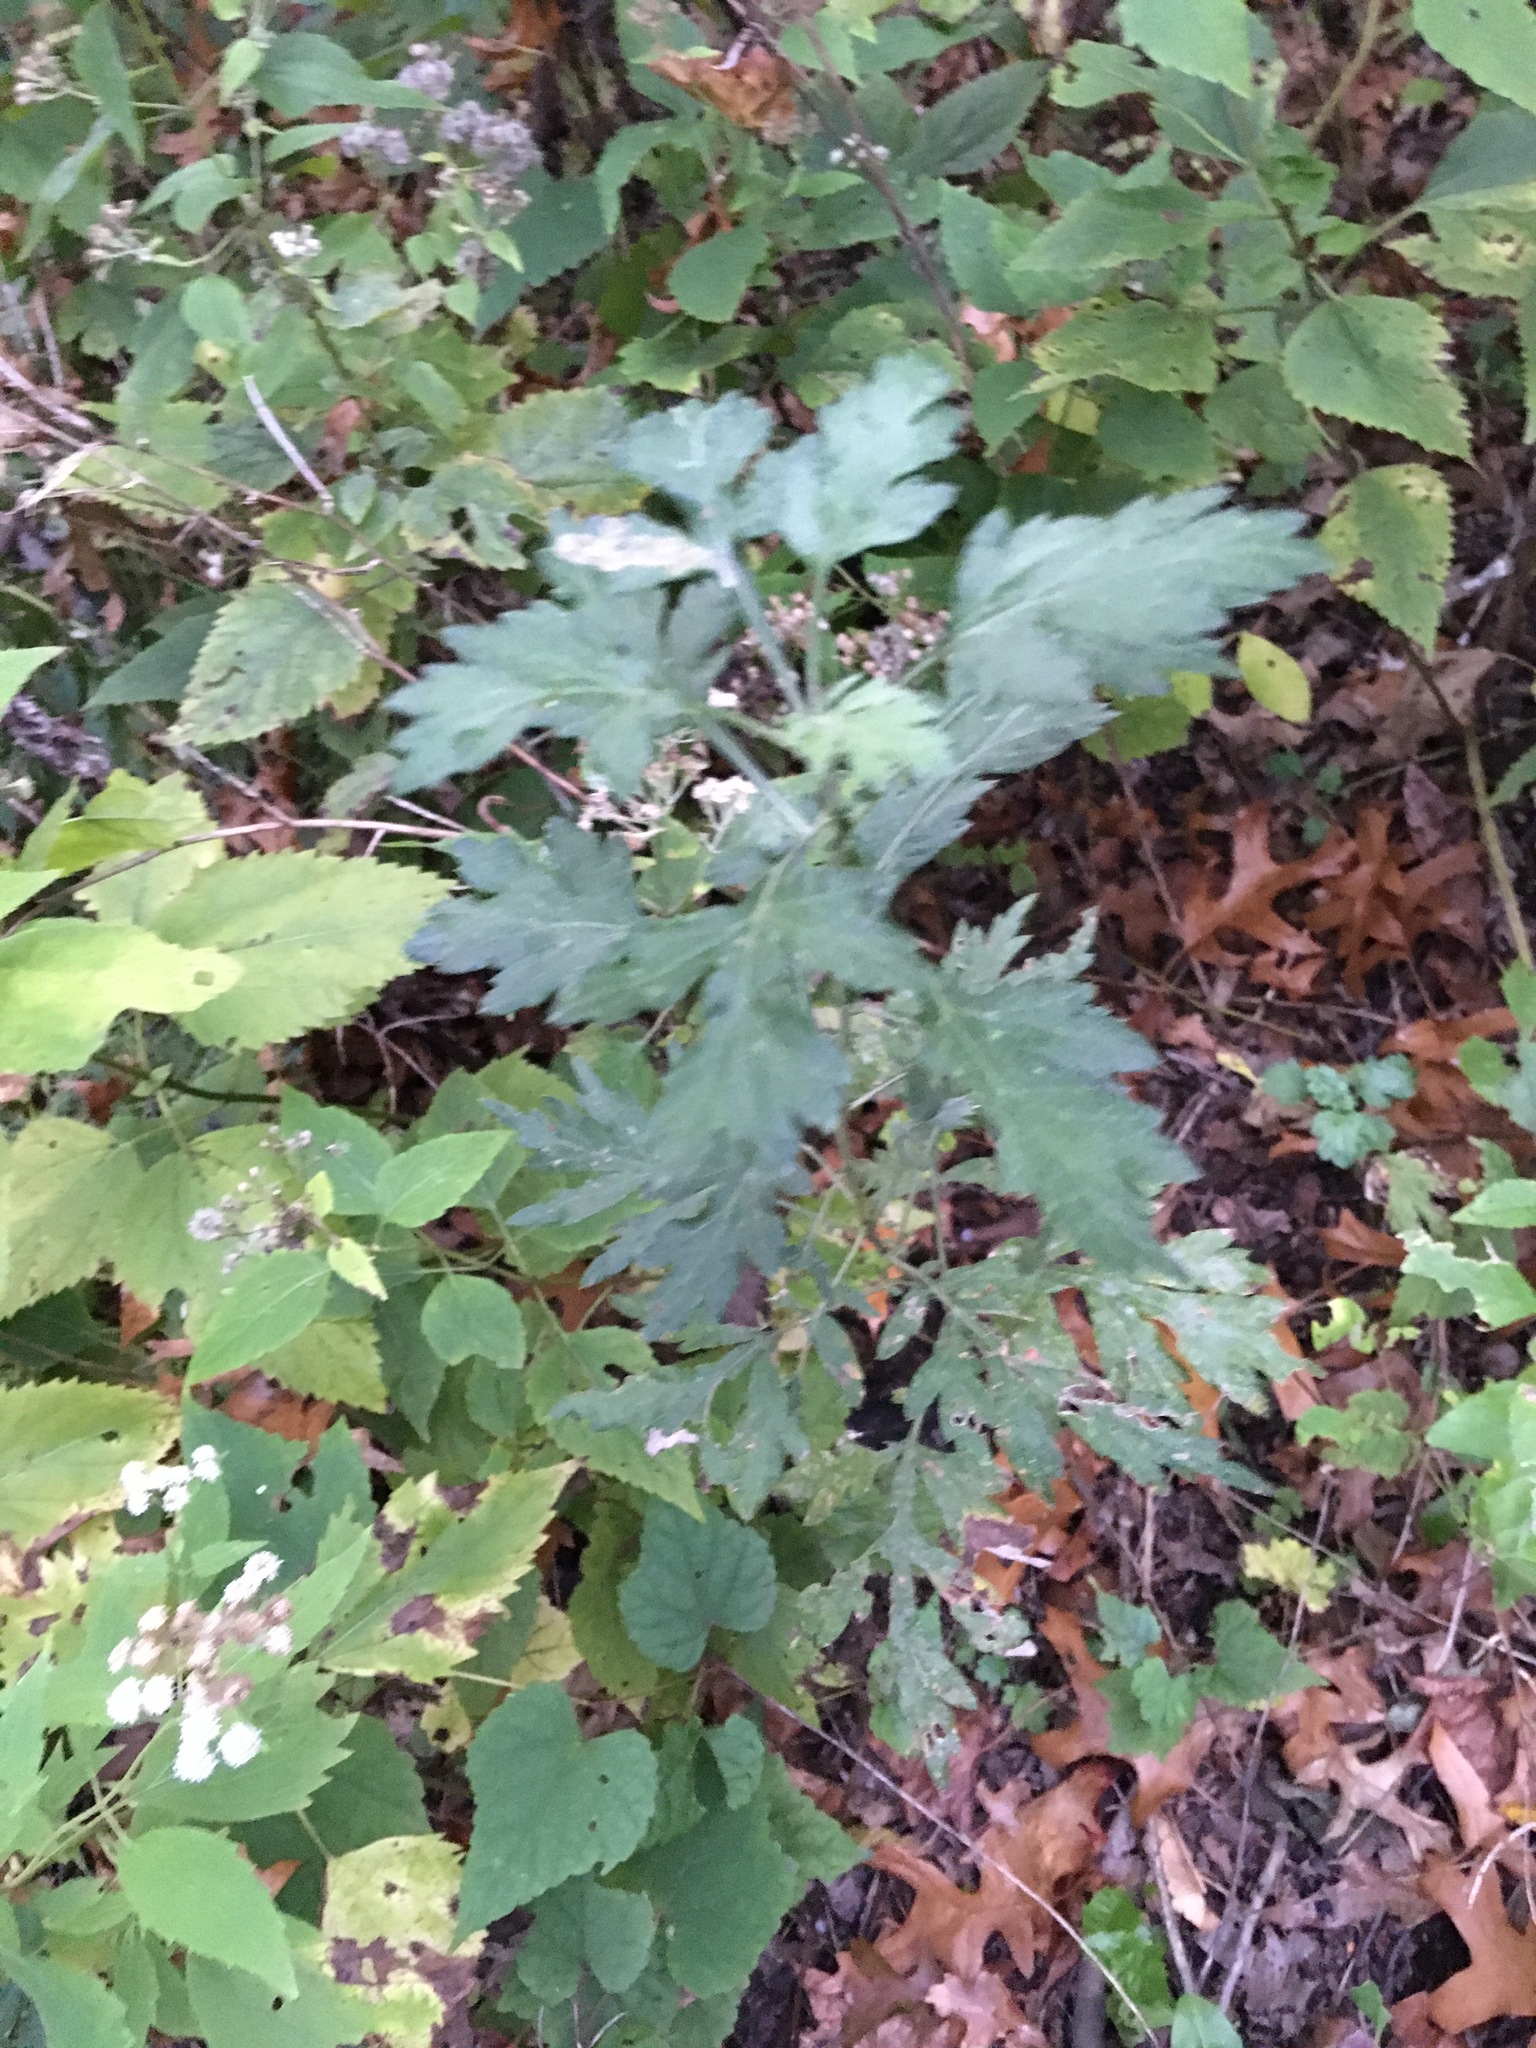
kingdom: Plantae
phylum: Tracheophyta
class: Magnoliopsida
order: Asterales
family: Asteraceae
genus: Artemisia
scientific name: Artemisia vulgaris
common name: Mugwort
